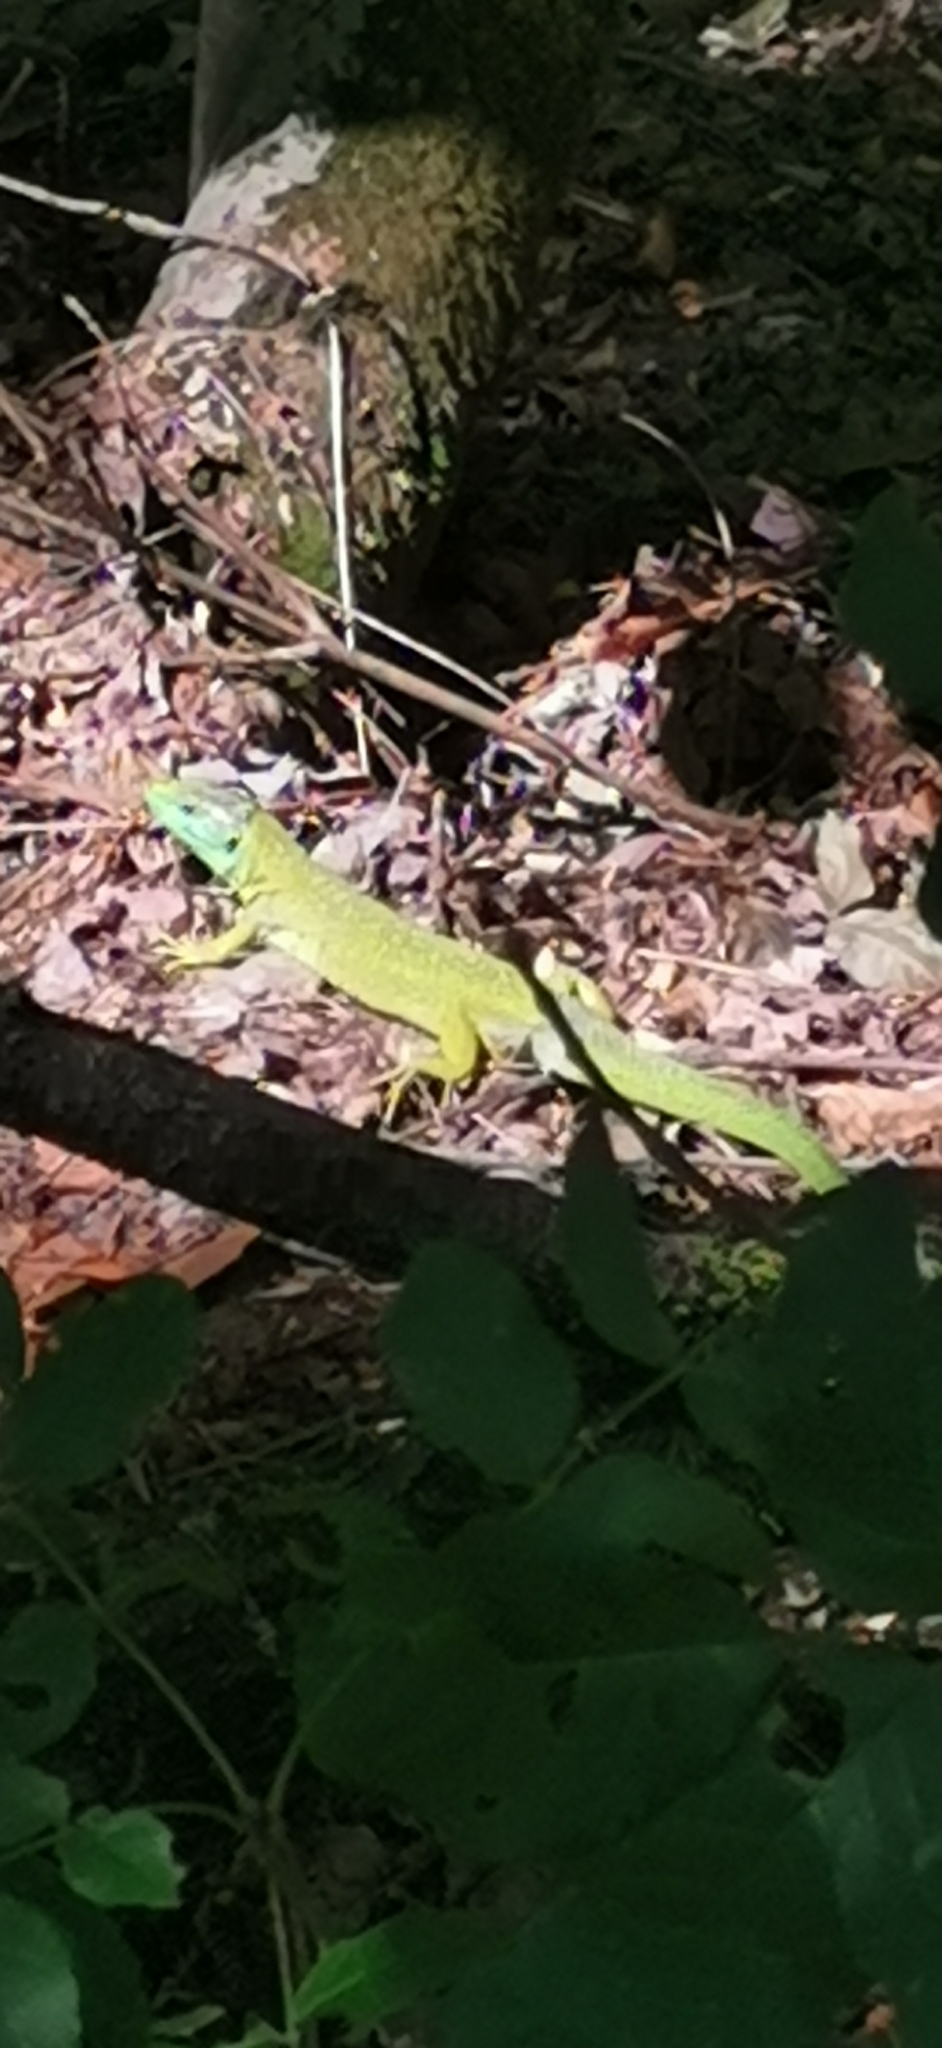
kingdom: Animalia
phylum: Chordata
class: Squamata
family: Lacertidae
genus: Lacerta
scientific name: Lacerta bilineata
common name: Western green lizard
